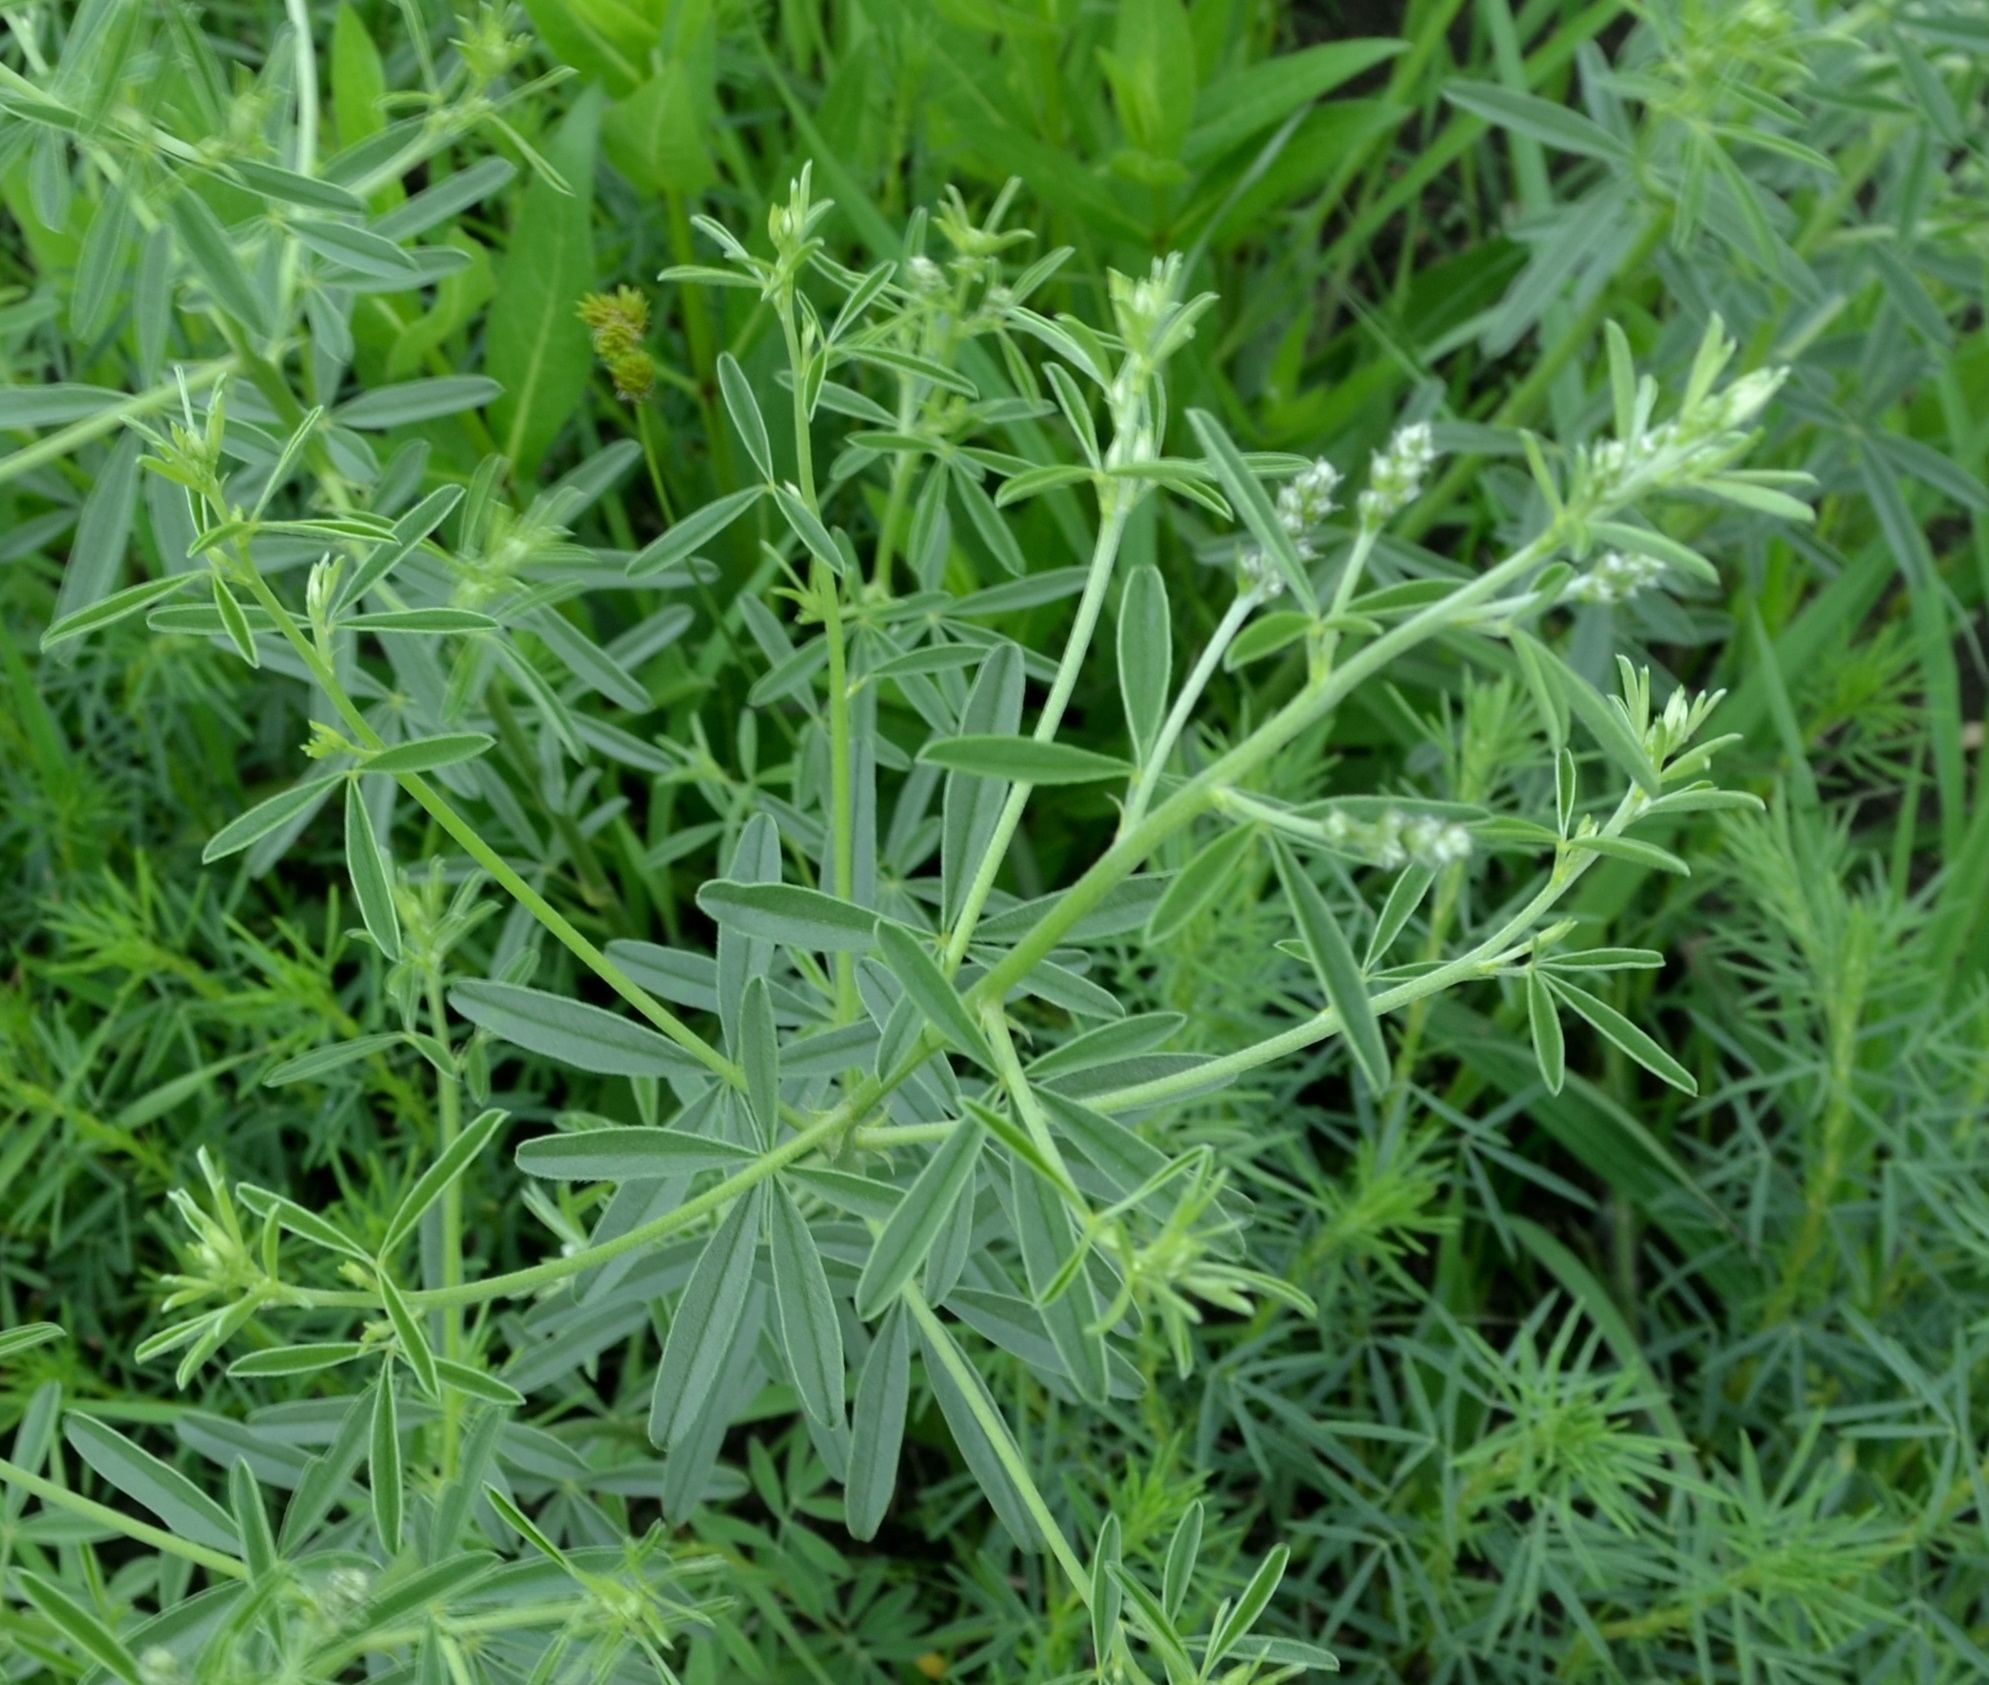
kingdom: Plantae
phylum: Tracheophyta
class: Magnoliopsida
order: Fabales
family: Fabaceae
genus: Pediomelum
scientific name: Pediomelum tenuiflorum
